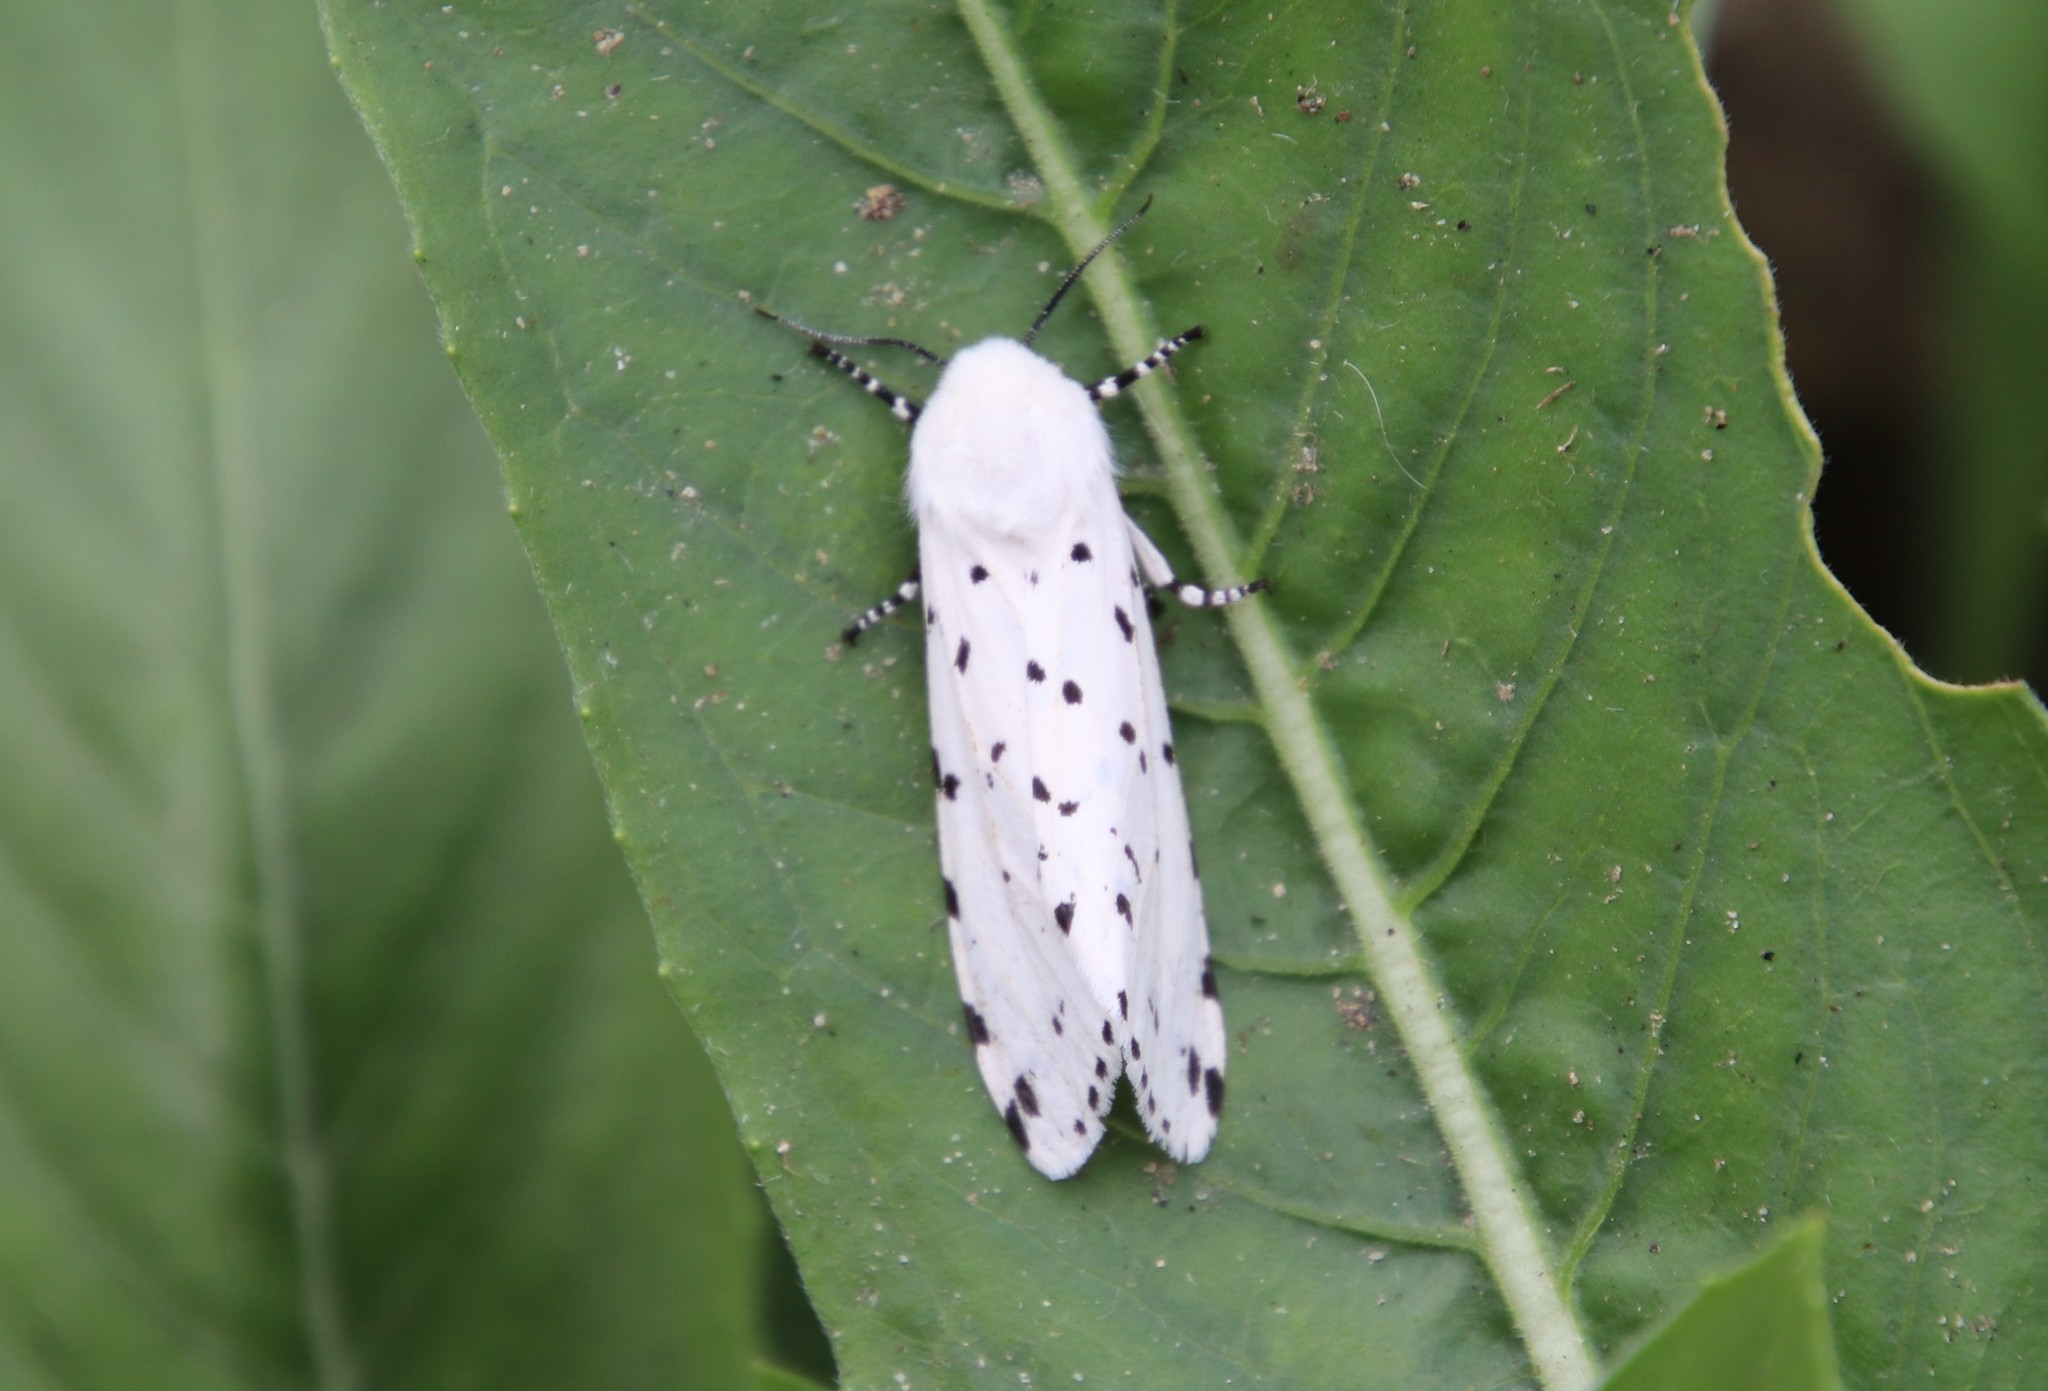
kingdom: Animalia
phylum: Arthropoda
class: Insecta
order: Lepidoptera
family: Erebidae
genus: Estigmene
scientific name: Estigmene acrea
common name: Salt marsh moth
